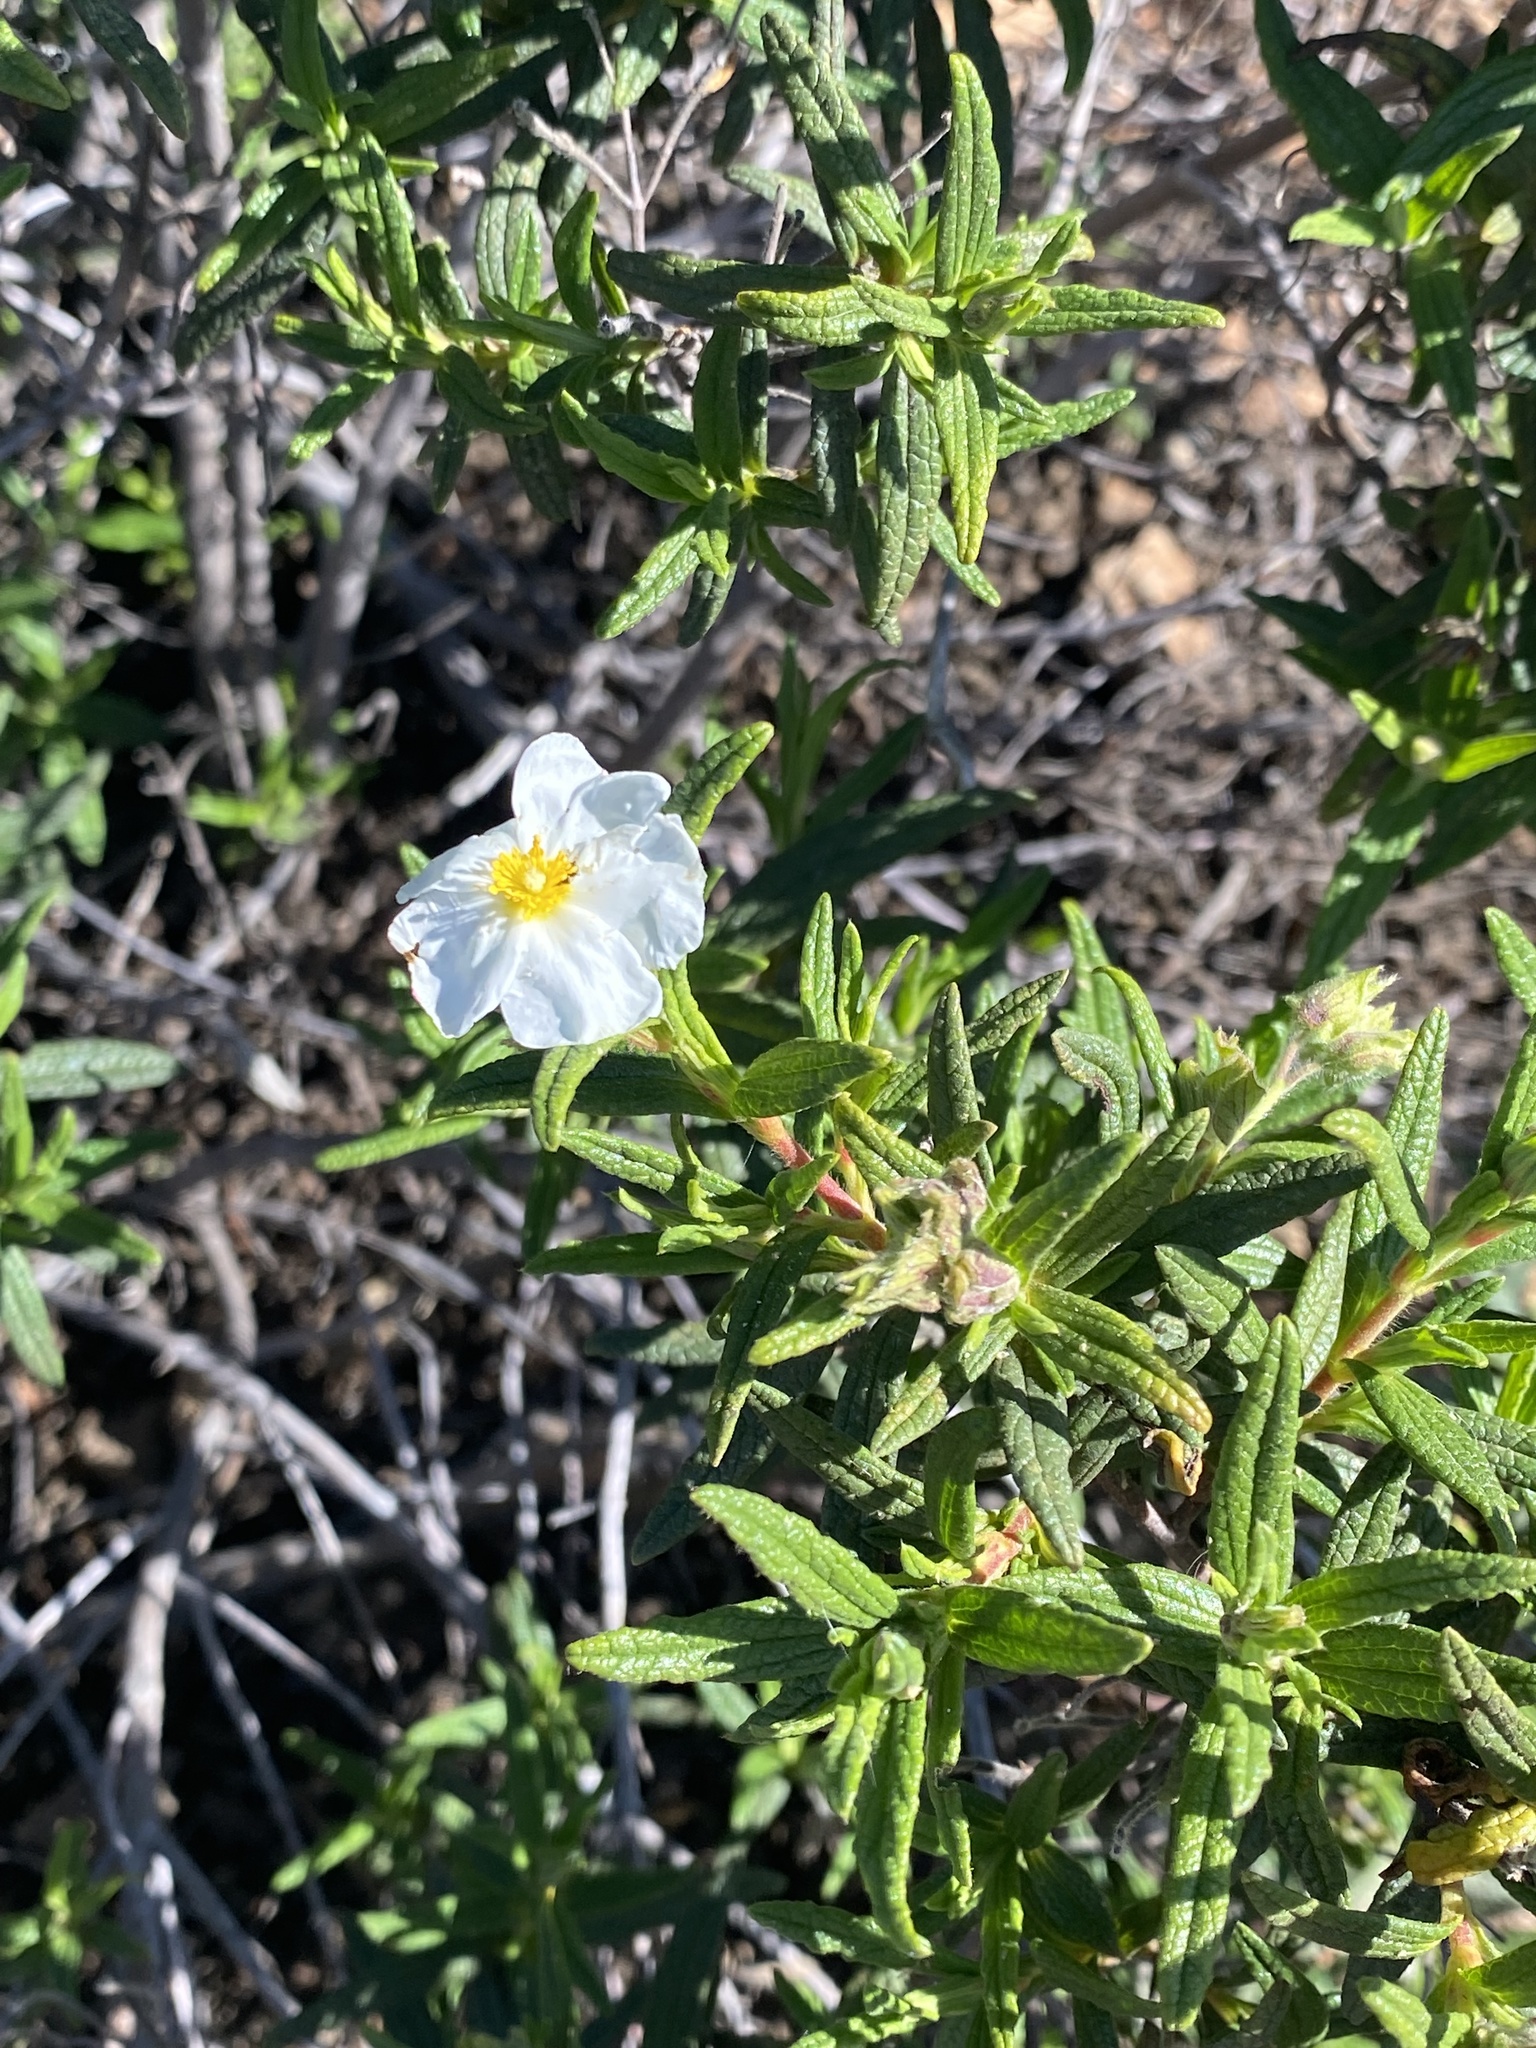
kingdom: Plantae
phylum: Tracheophyta
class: Magnoliopsida
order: Malvales
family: Cistaceae
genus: Cistus
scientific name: Cistus monspeliensis
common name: Montpelier cistus
